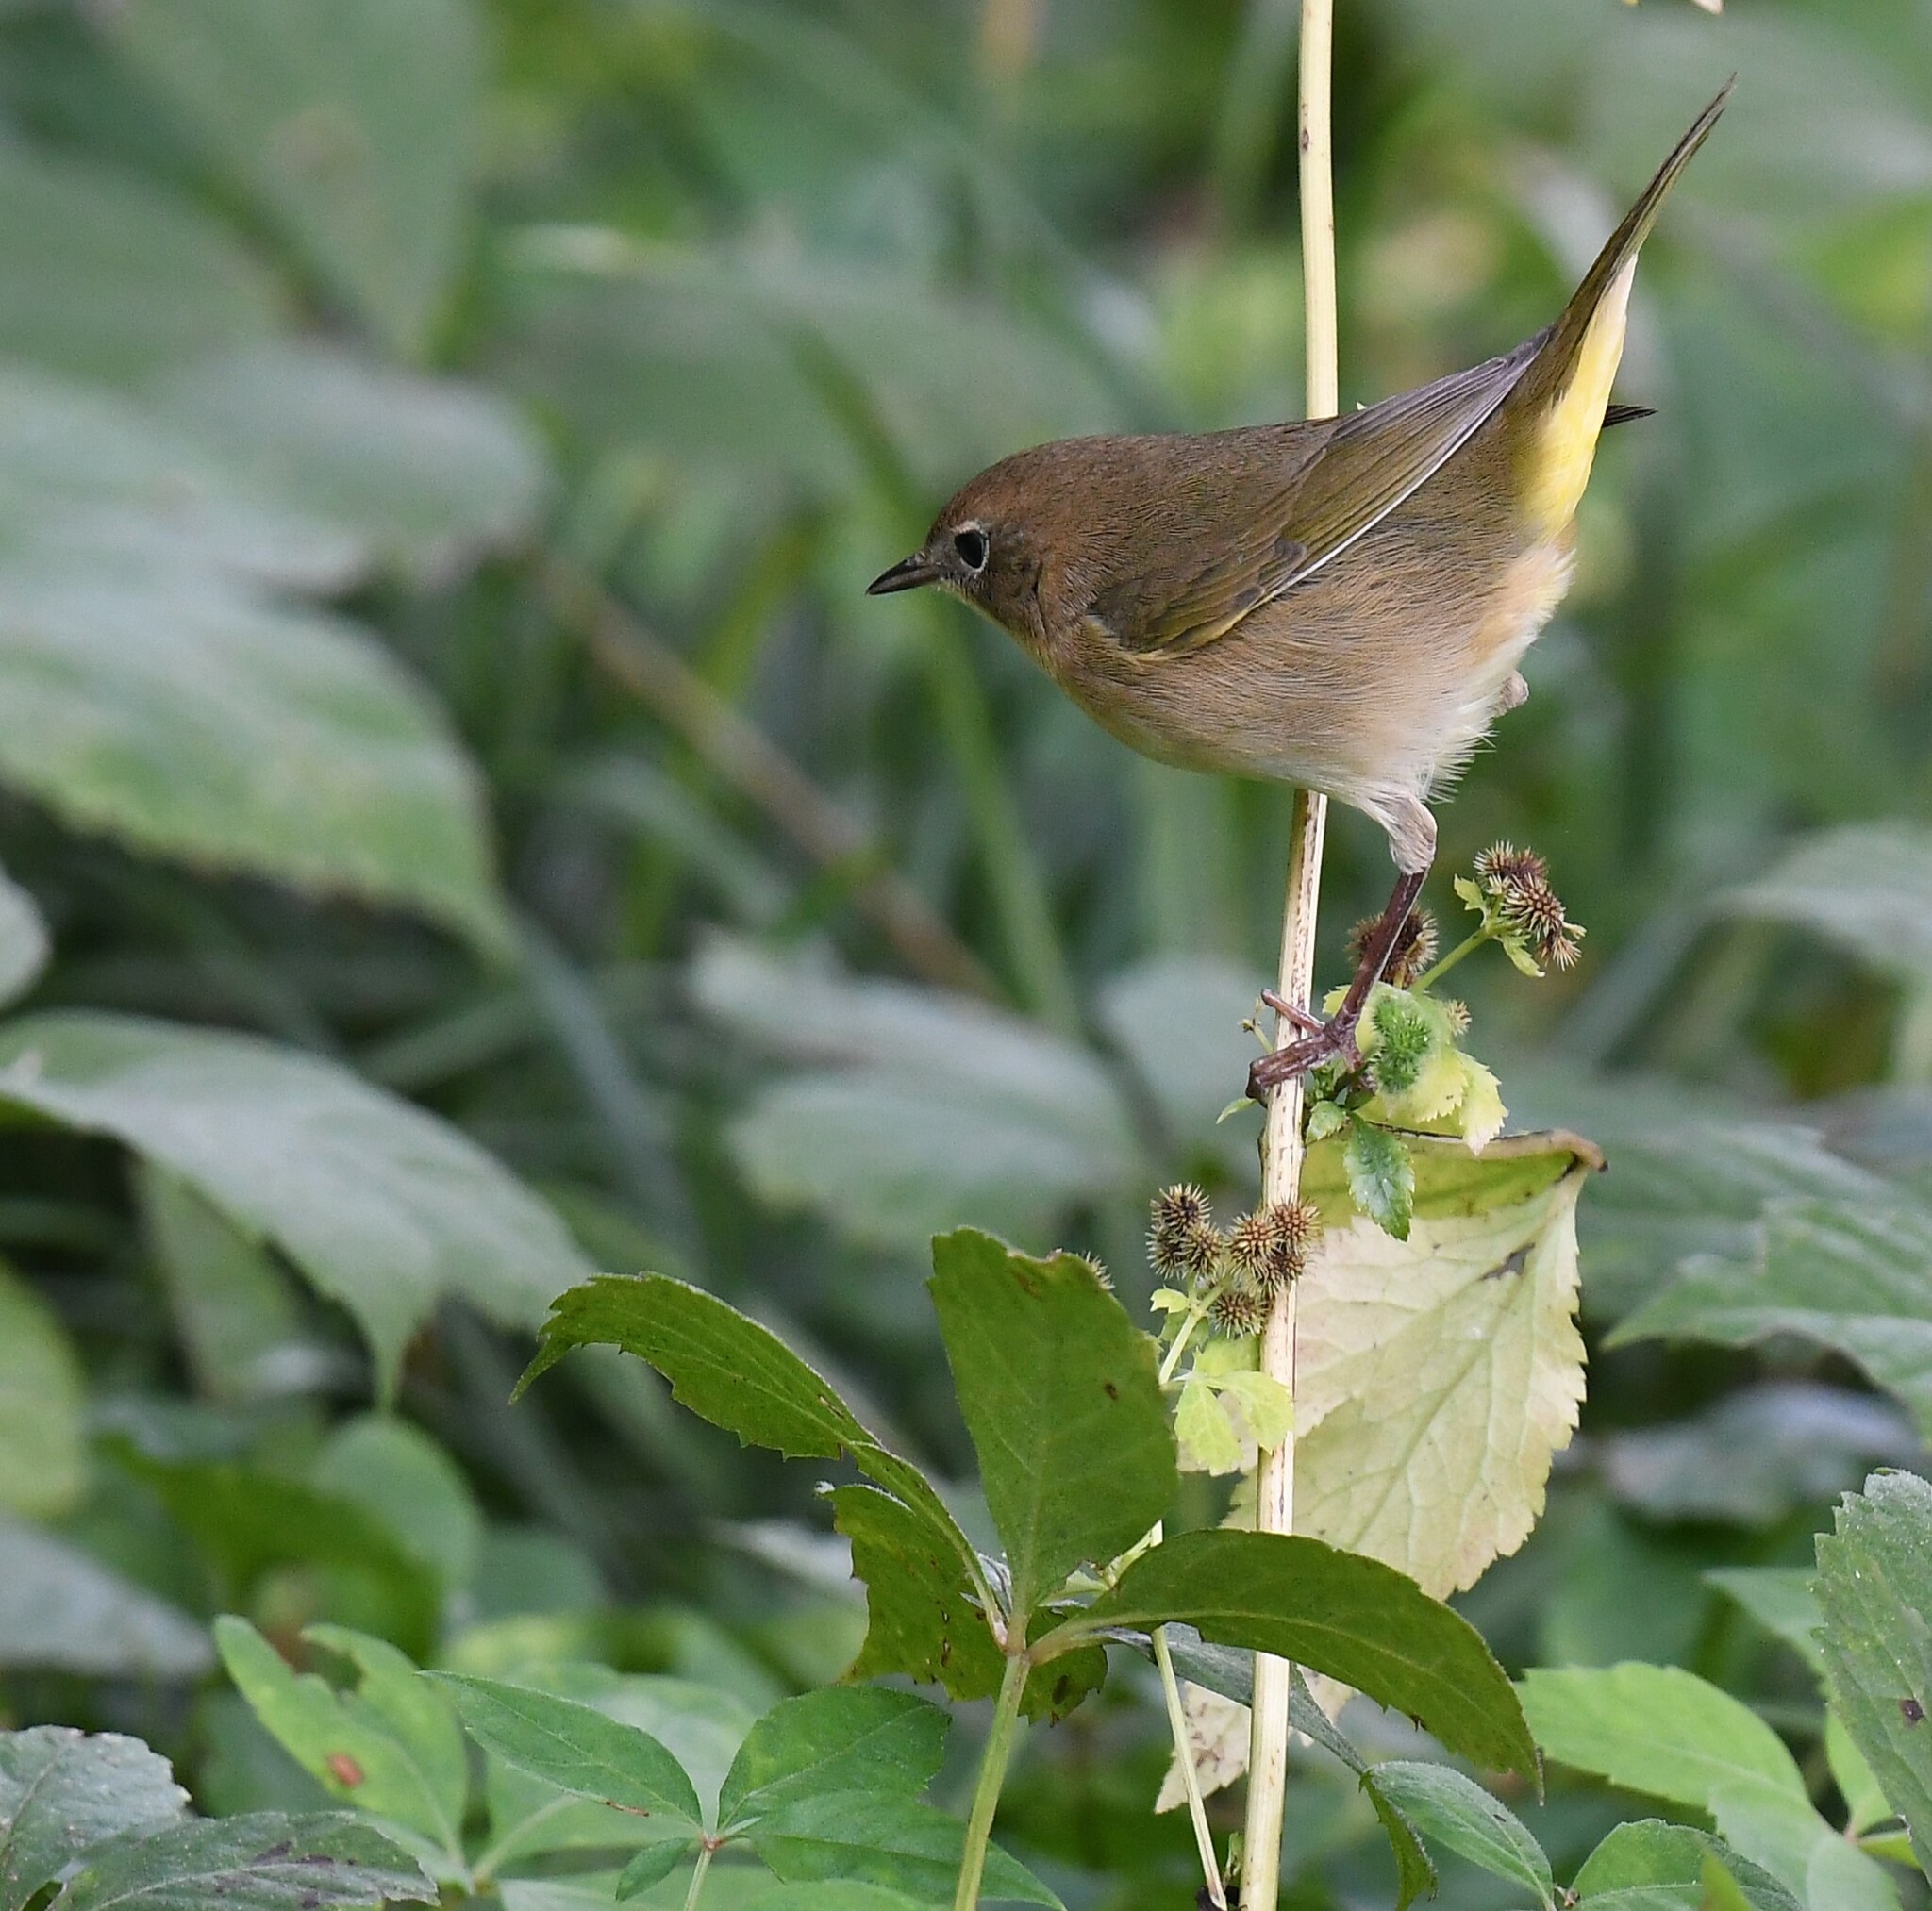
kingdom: Animalia
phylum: Chordata
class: Aves
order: Passeriformes
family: Parulidae
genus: Geothlypis
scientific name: Geothlypis trichas
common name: Common yellowthroat
